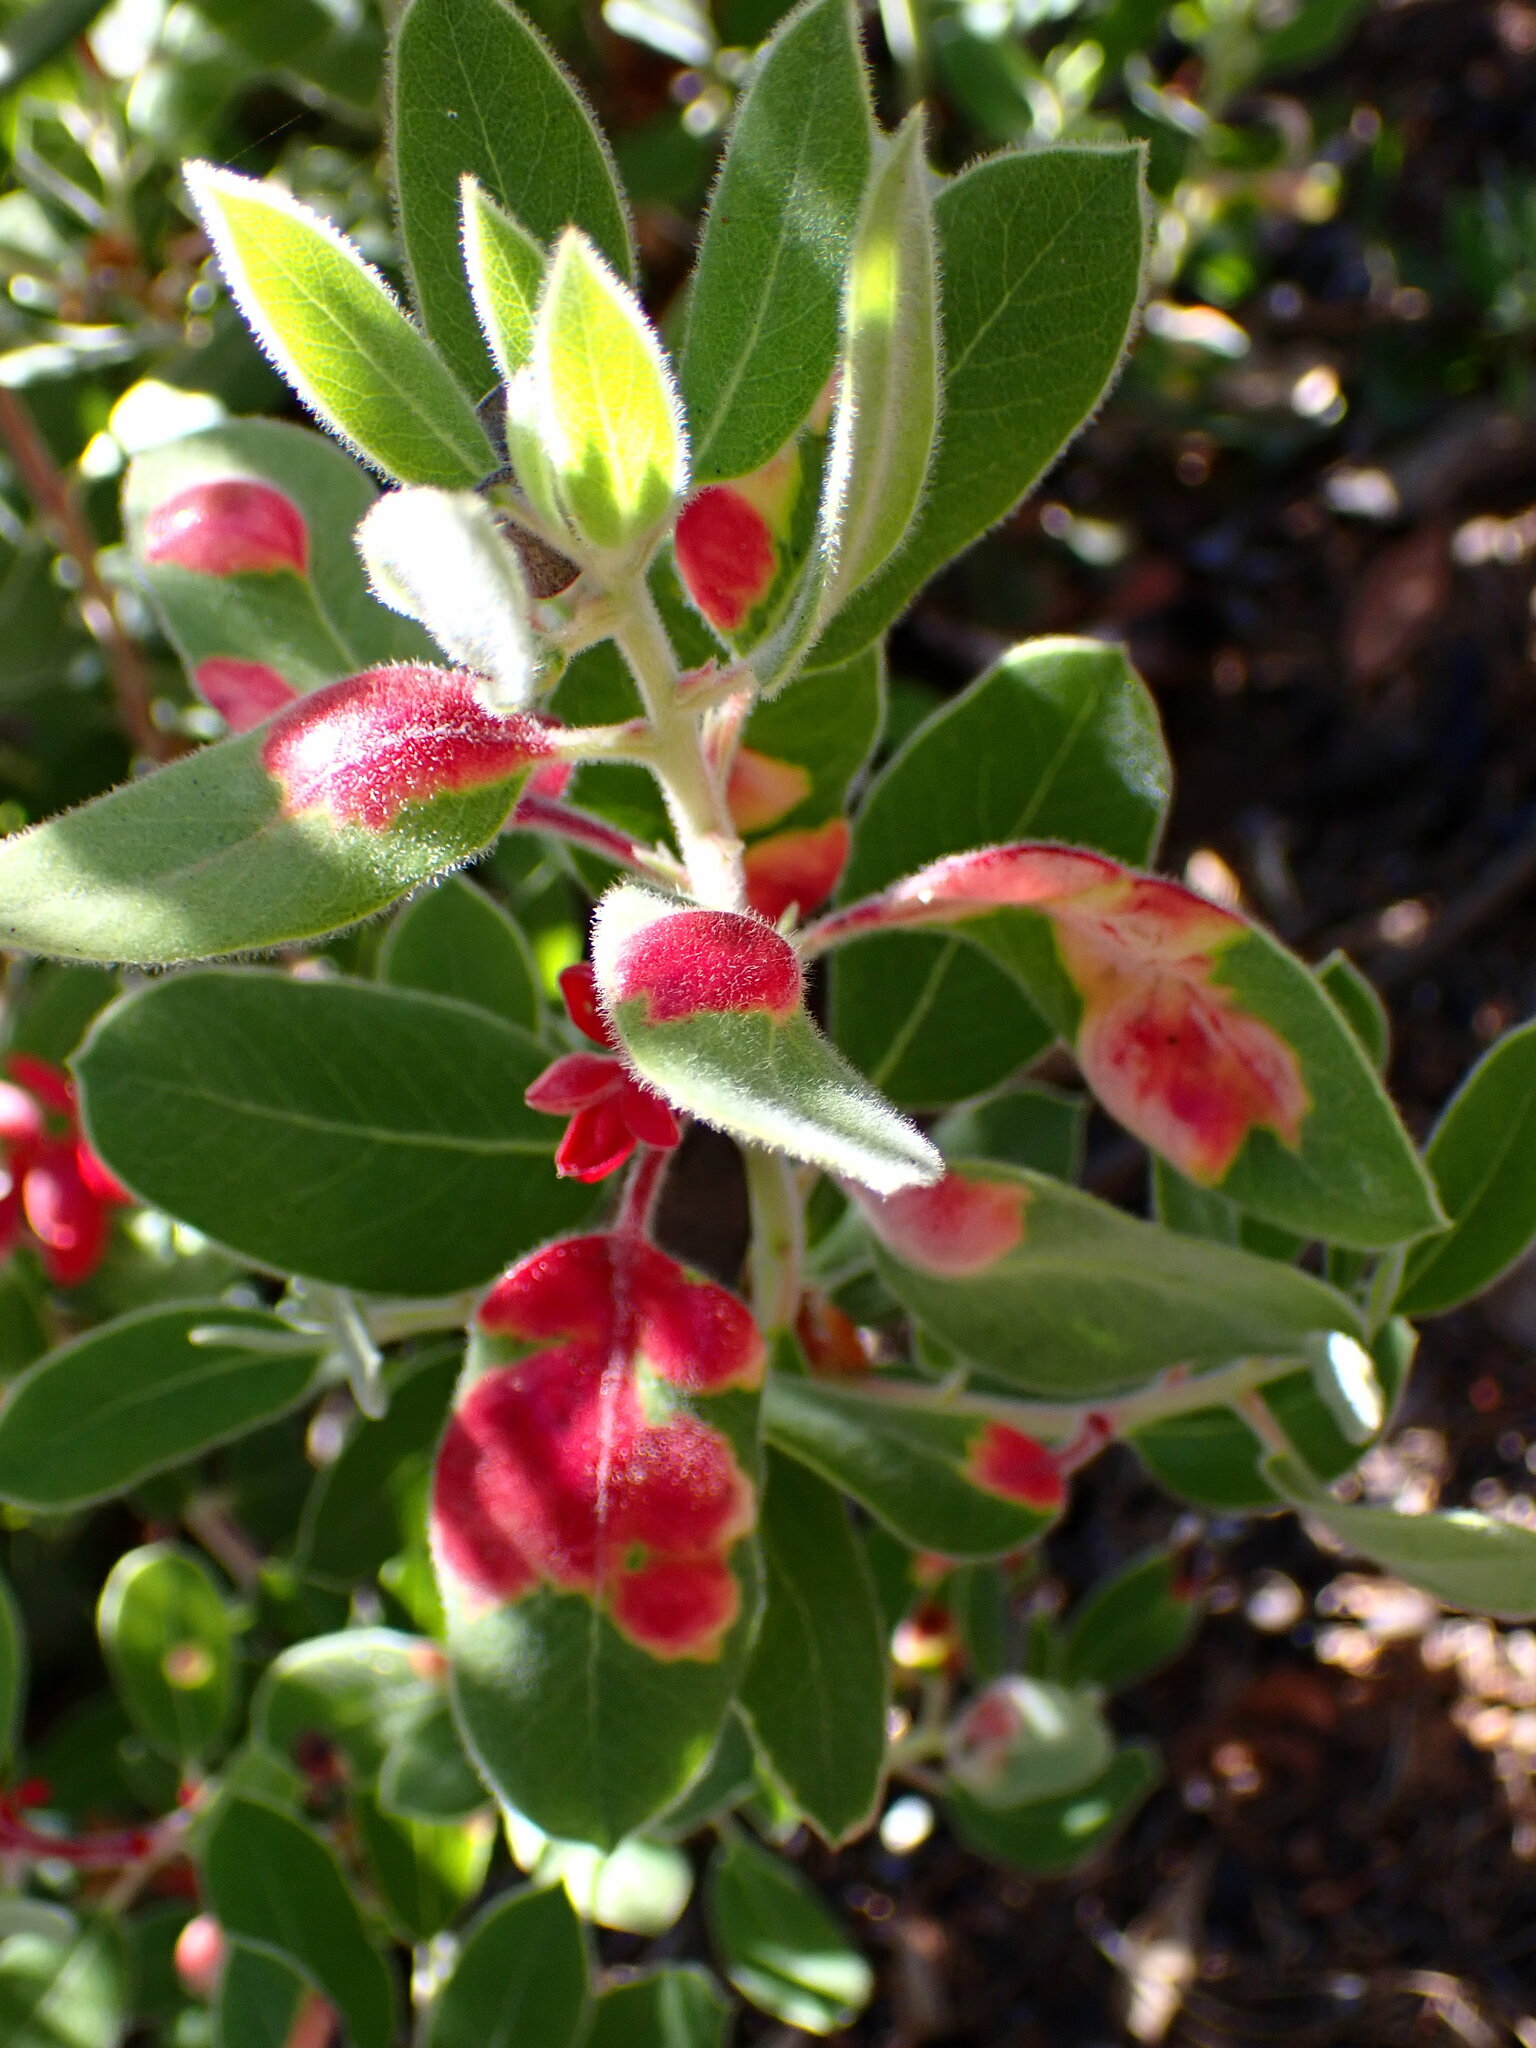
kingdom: Fungi
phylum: Basidiomycota
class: Exobasidiomycetes
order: Exobasidiales
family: Exobasidiaceae
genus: Exobasidium
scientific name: Exobasidium arctostaphyli
